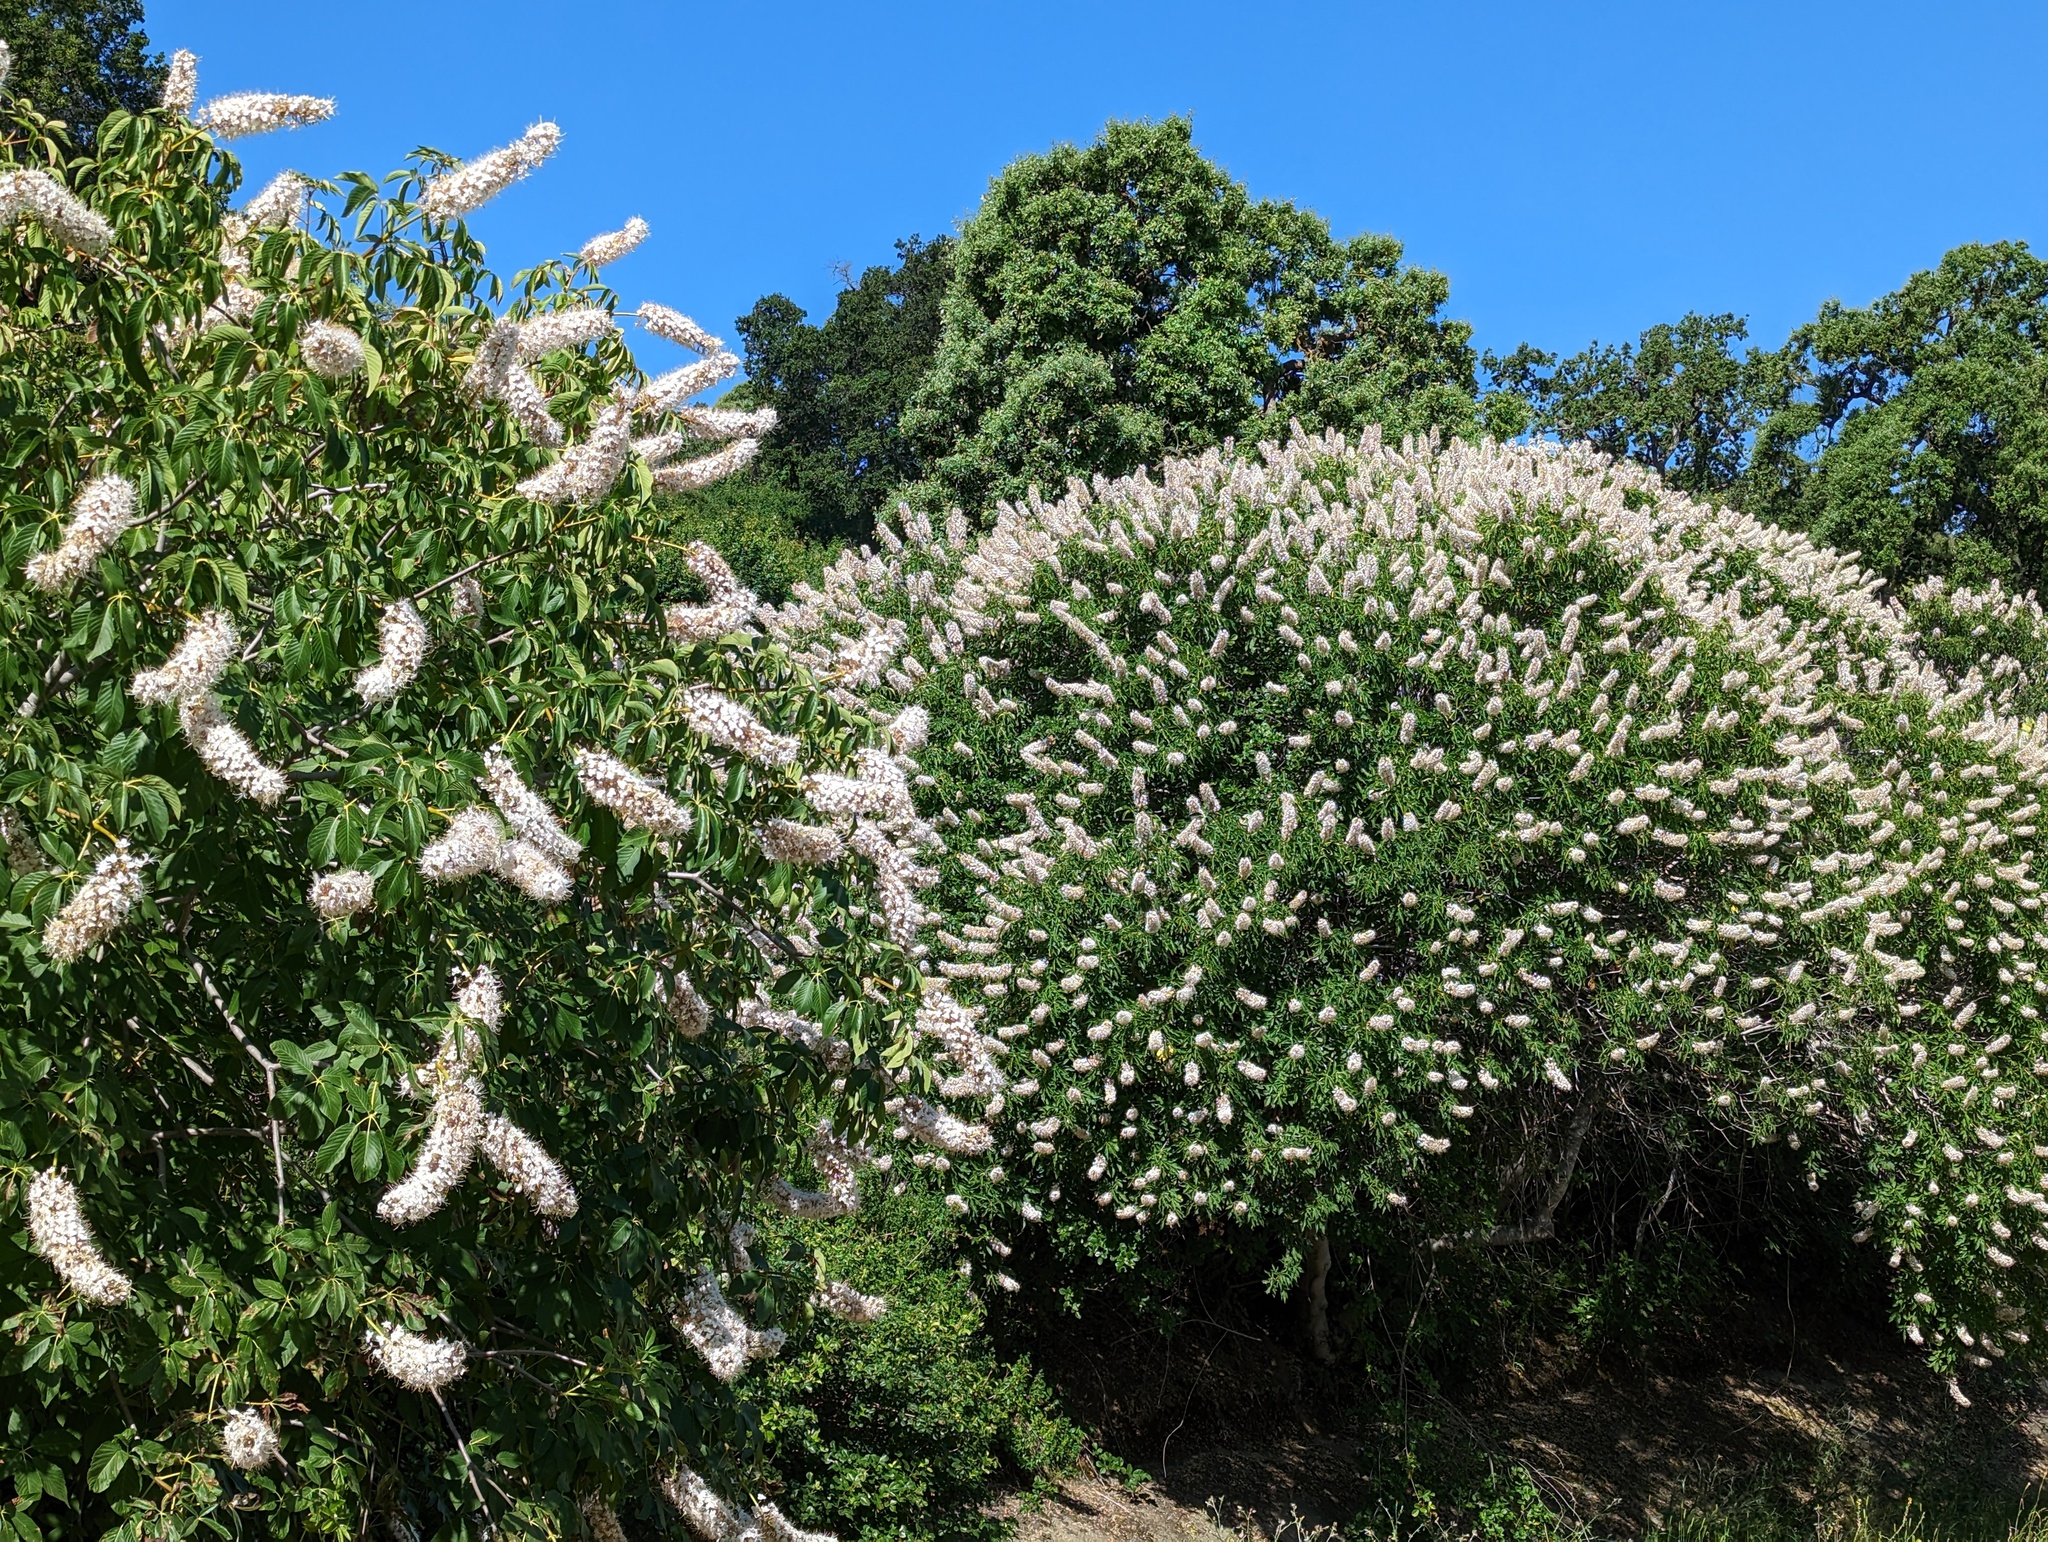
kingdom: Plantae
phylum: Tracheophyta
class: Magnoliopsida
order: Sapindales
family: Sapindaceae
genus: Aesculus
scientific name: Aesculus californica
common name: California buckeye
